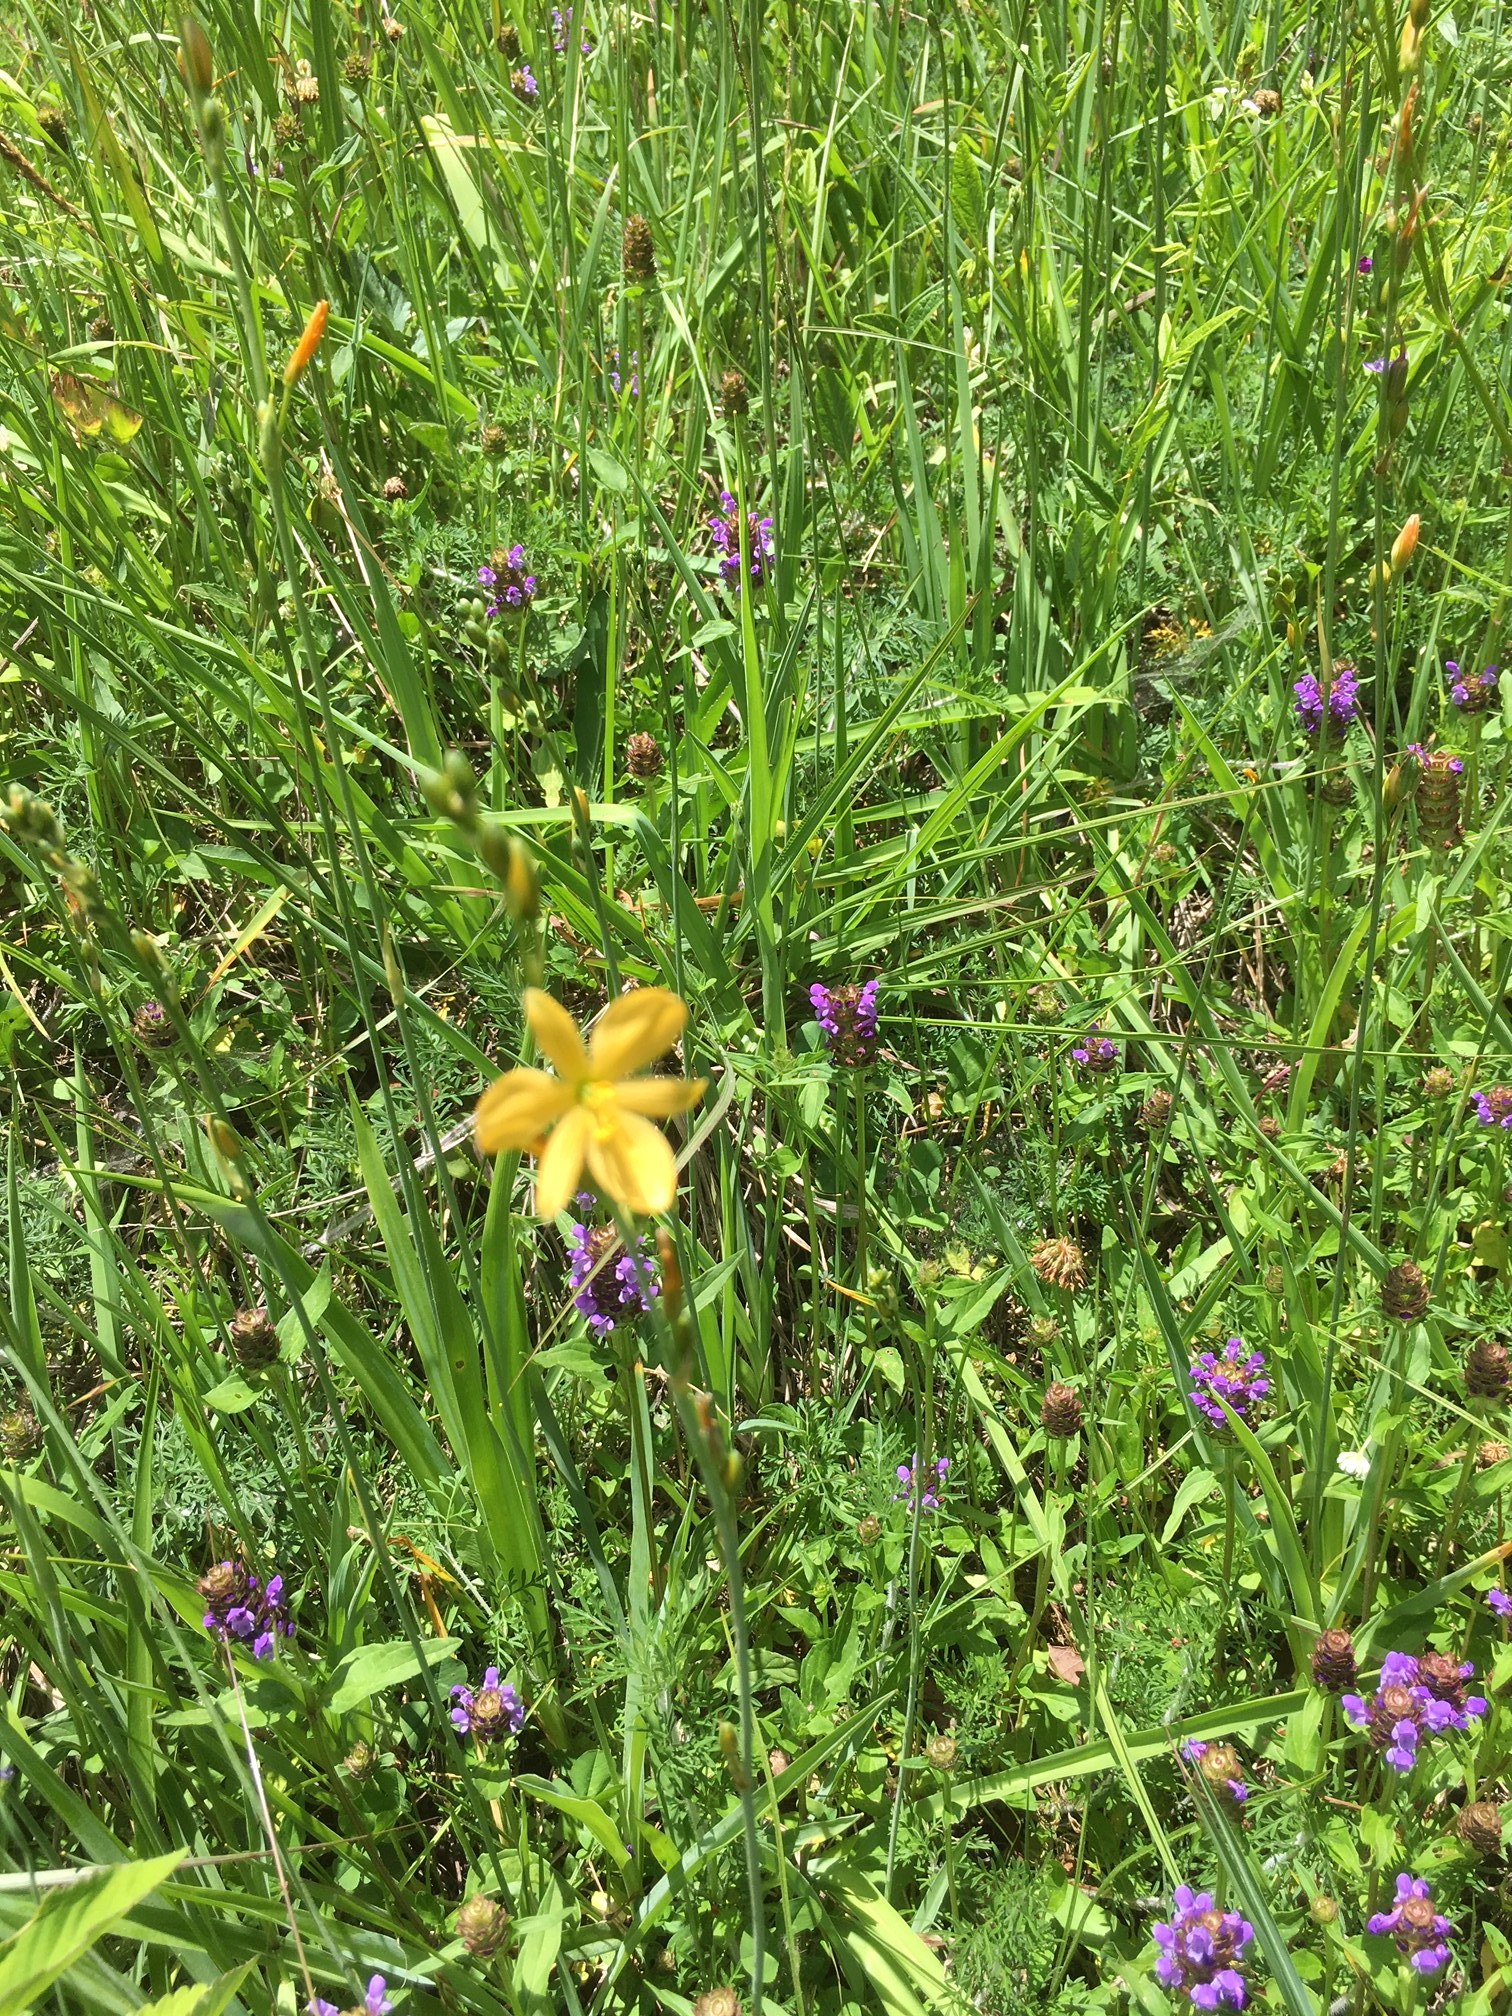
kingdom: Plantae
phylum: Tracheophyta
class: Liliopsida
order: Asparagales
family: Asparagaceae
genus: Echeandia
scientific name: Echeandia skinneri
